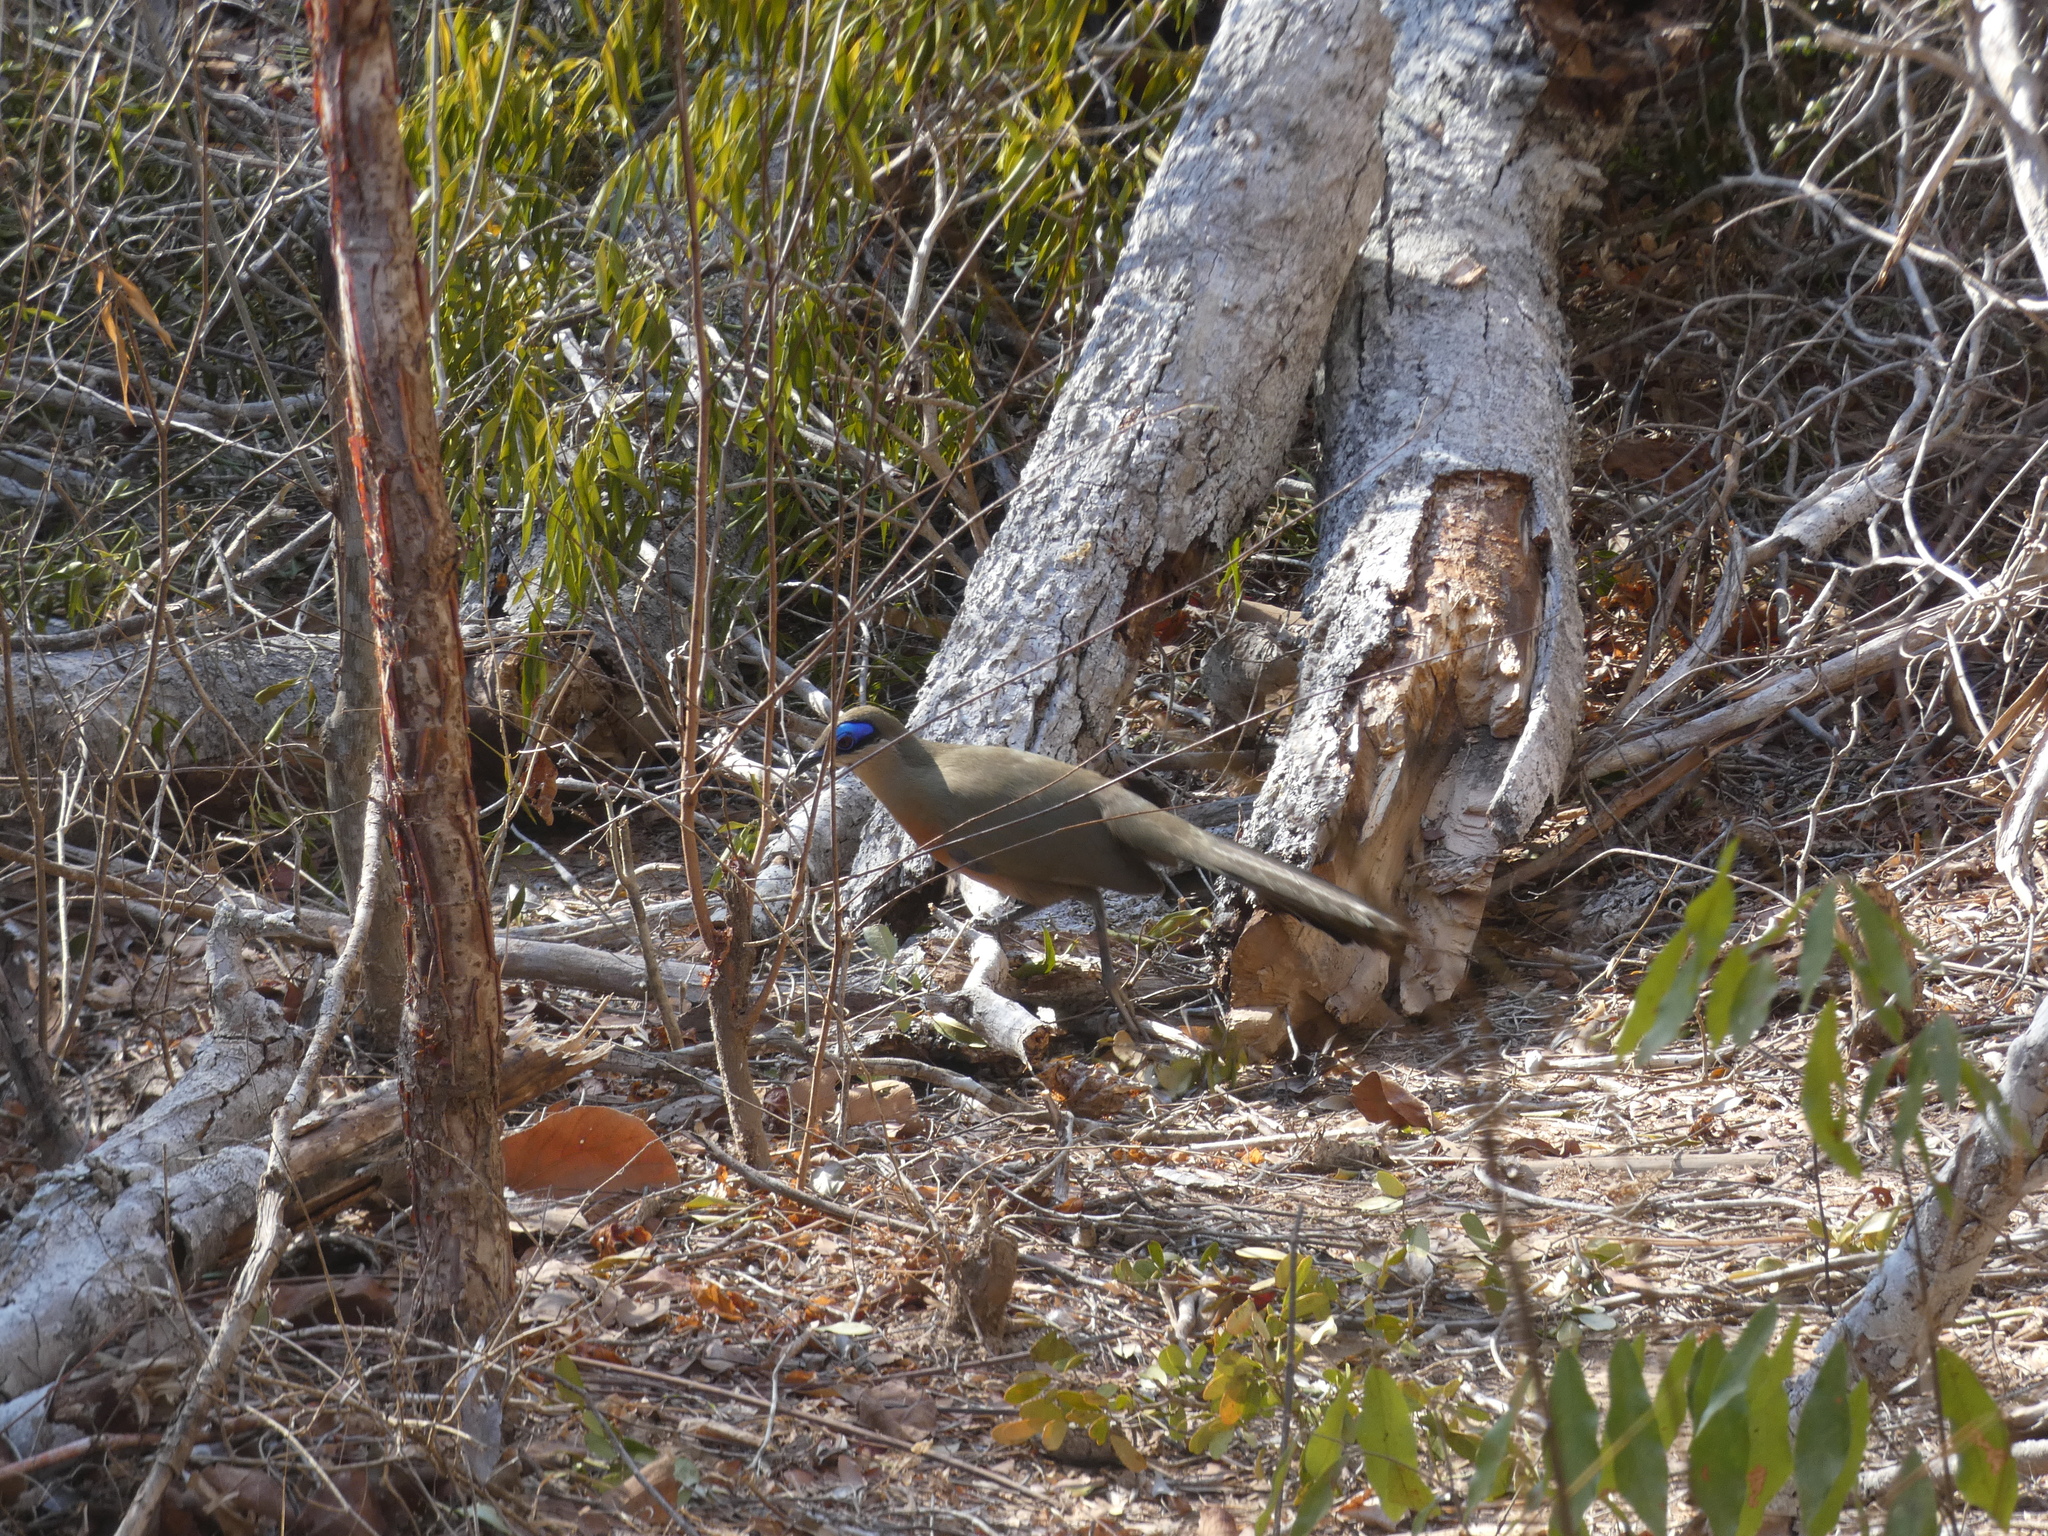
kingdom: Animalia
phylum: Chordata
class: Aves
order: Cuculiformes
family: Cuculidae
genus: Coua
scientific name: Coua ruficeps
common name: Red-capped coua
